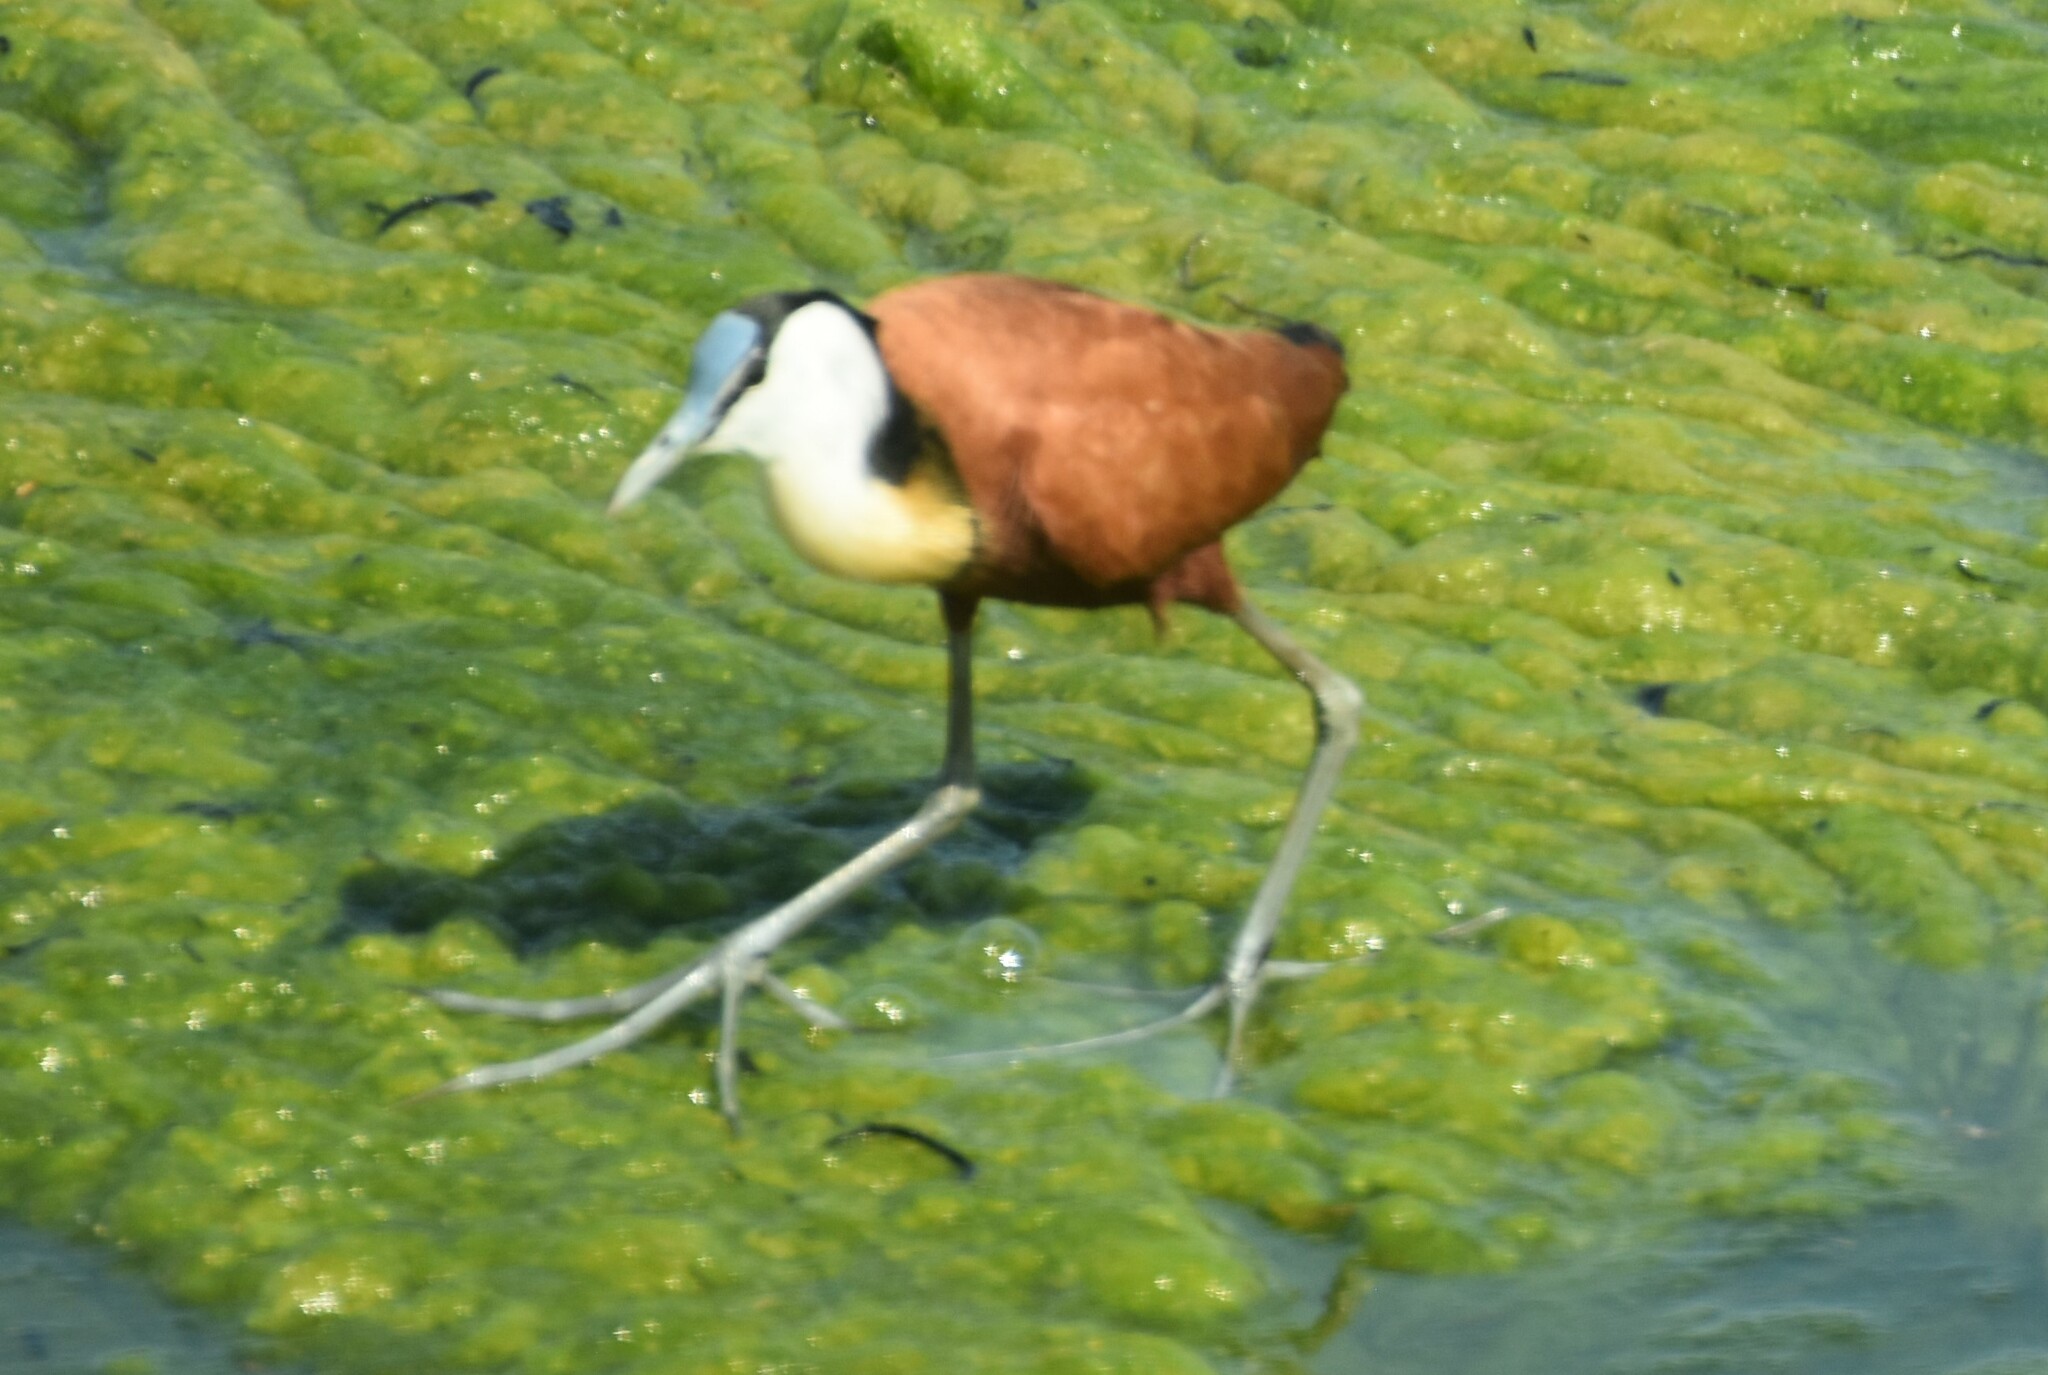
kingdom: Animalia
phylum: Chordata
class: Aves
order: Charadriiformes
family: Jacanidae
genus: Actophilornis
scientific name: Actophilornis africanus
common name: African jacana
